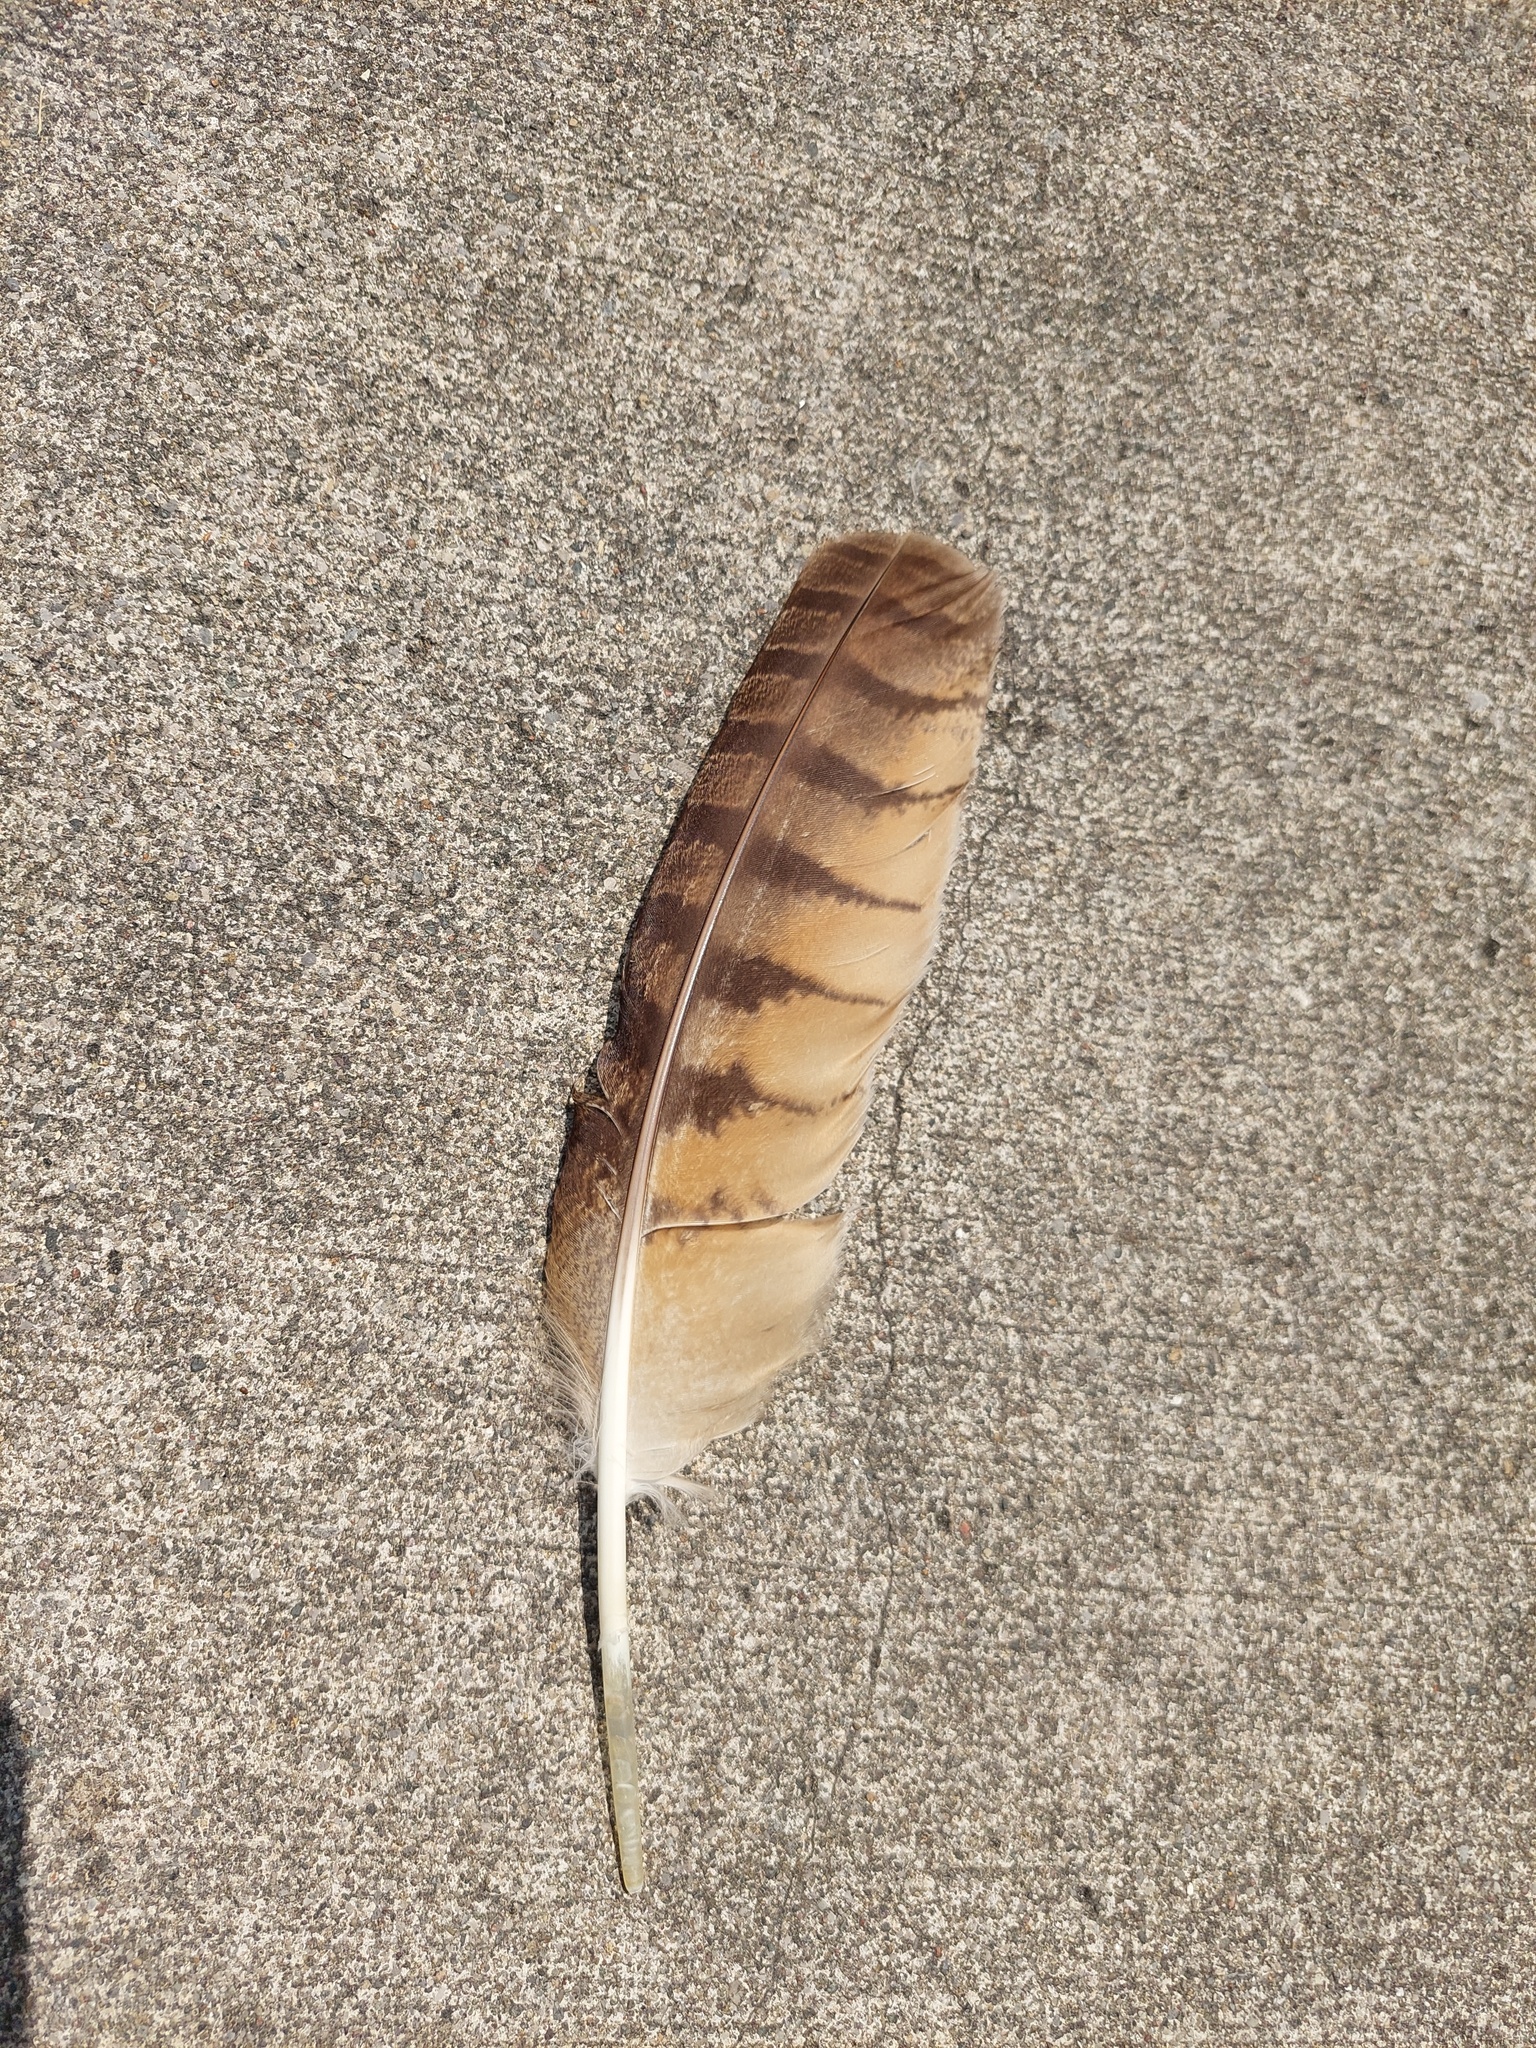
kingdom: Animalia
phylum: Chordata
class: Aves
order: Strigiformes
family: Strigidae
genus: Bubo
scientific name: Bubo virginianus
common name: Great horned owl
